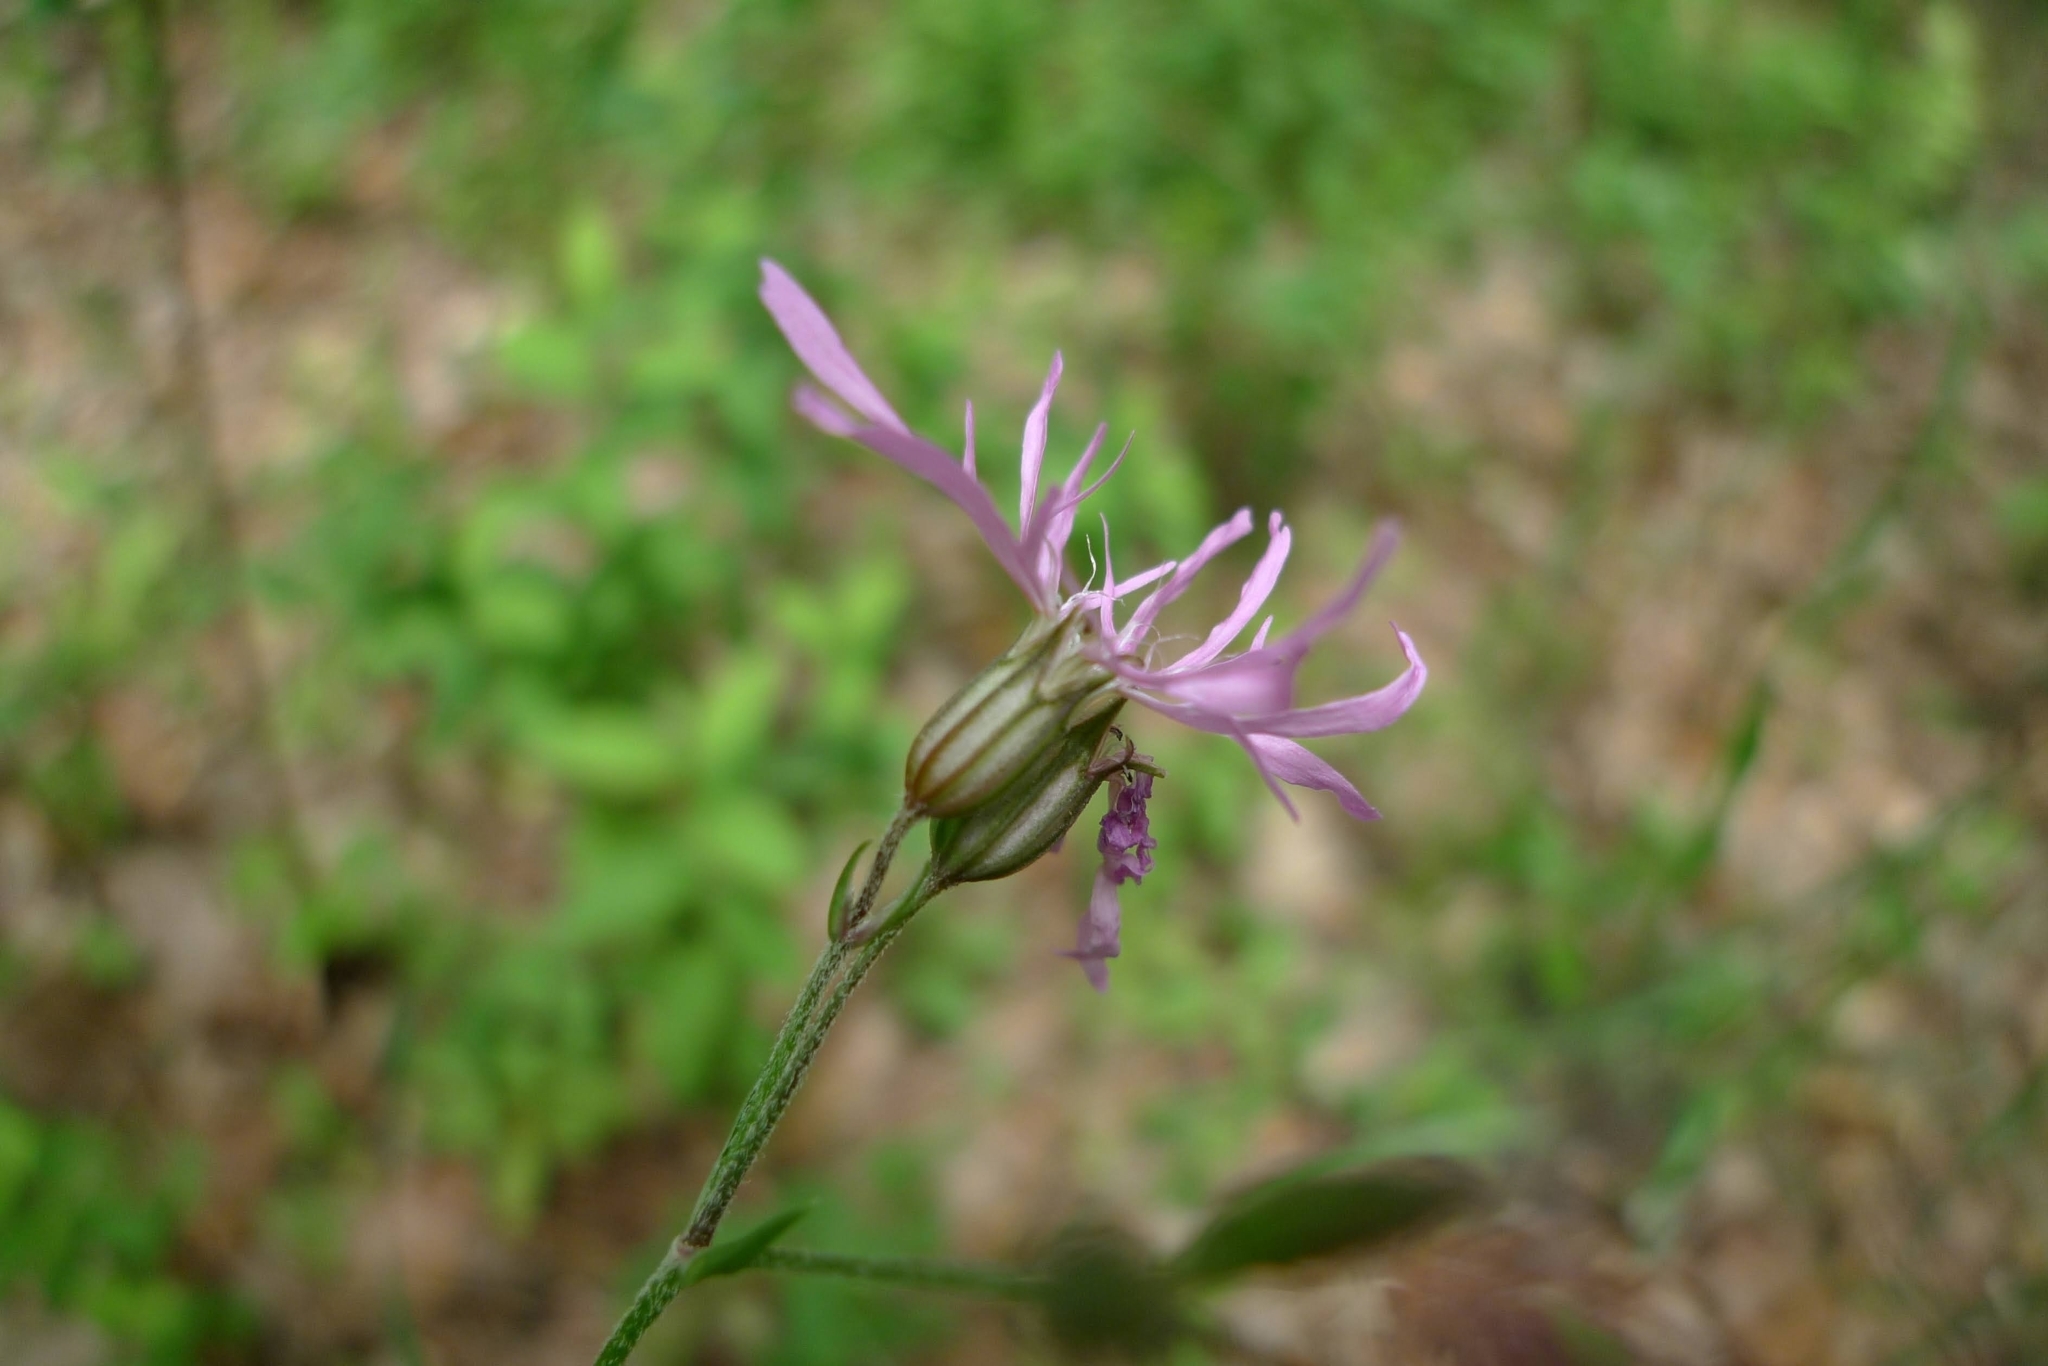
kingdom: Plantae
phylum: Tracheophyta
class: Magnoliopsida
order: Caryophyllales
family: Caryophyllaceae
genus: Silene
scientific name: Silene flos-cuculi
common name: Ragged-robin
